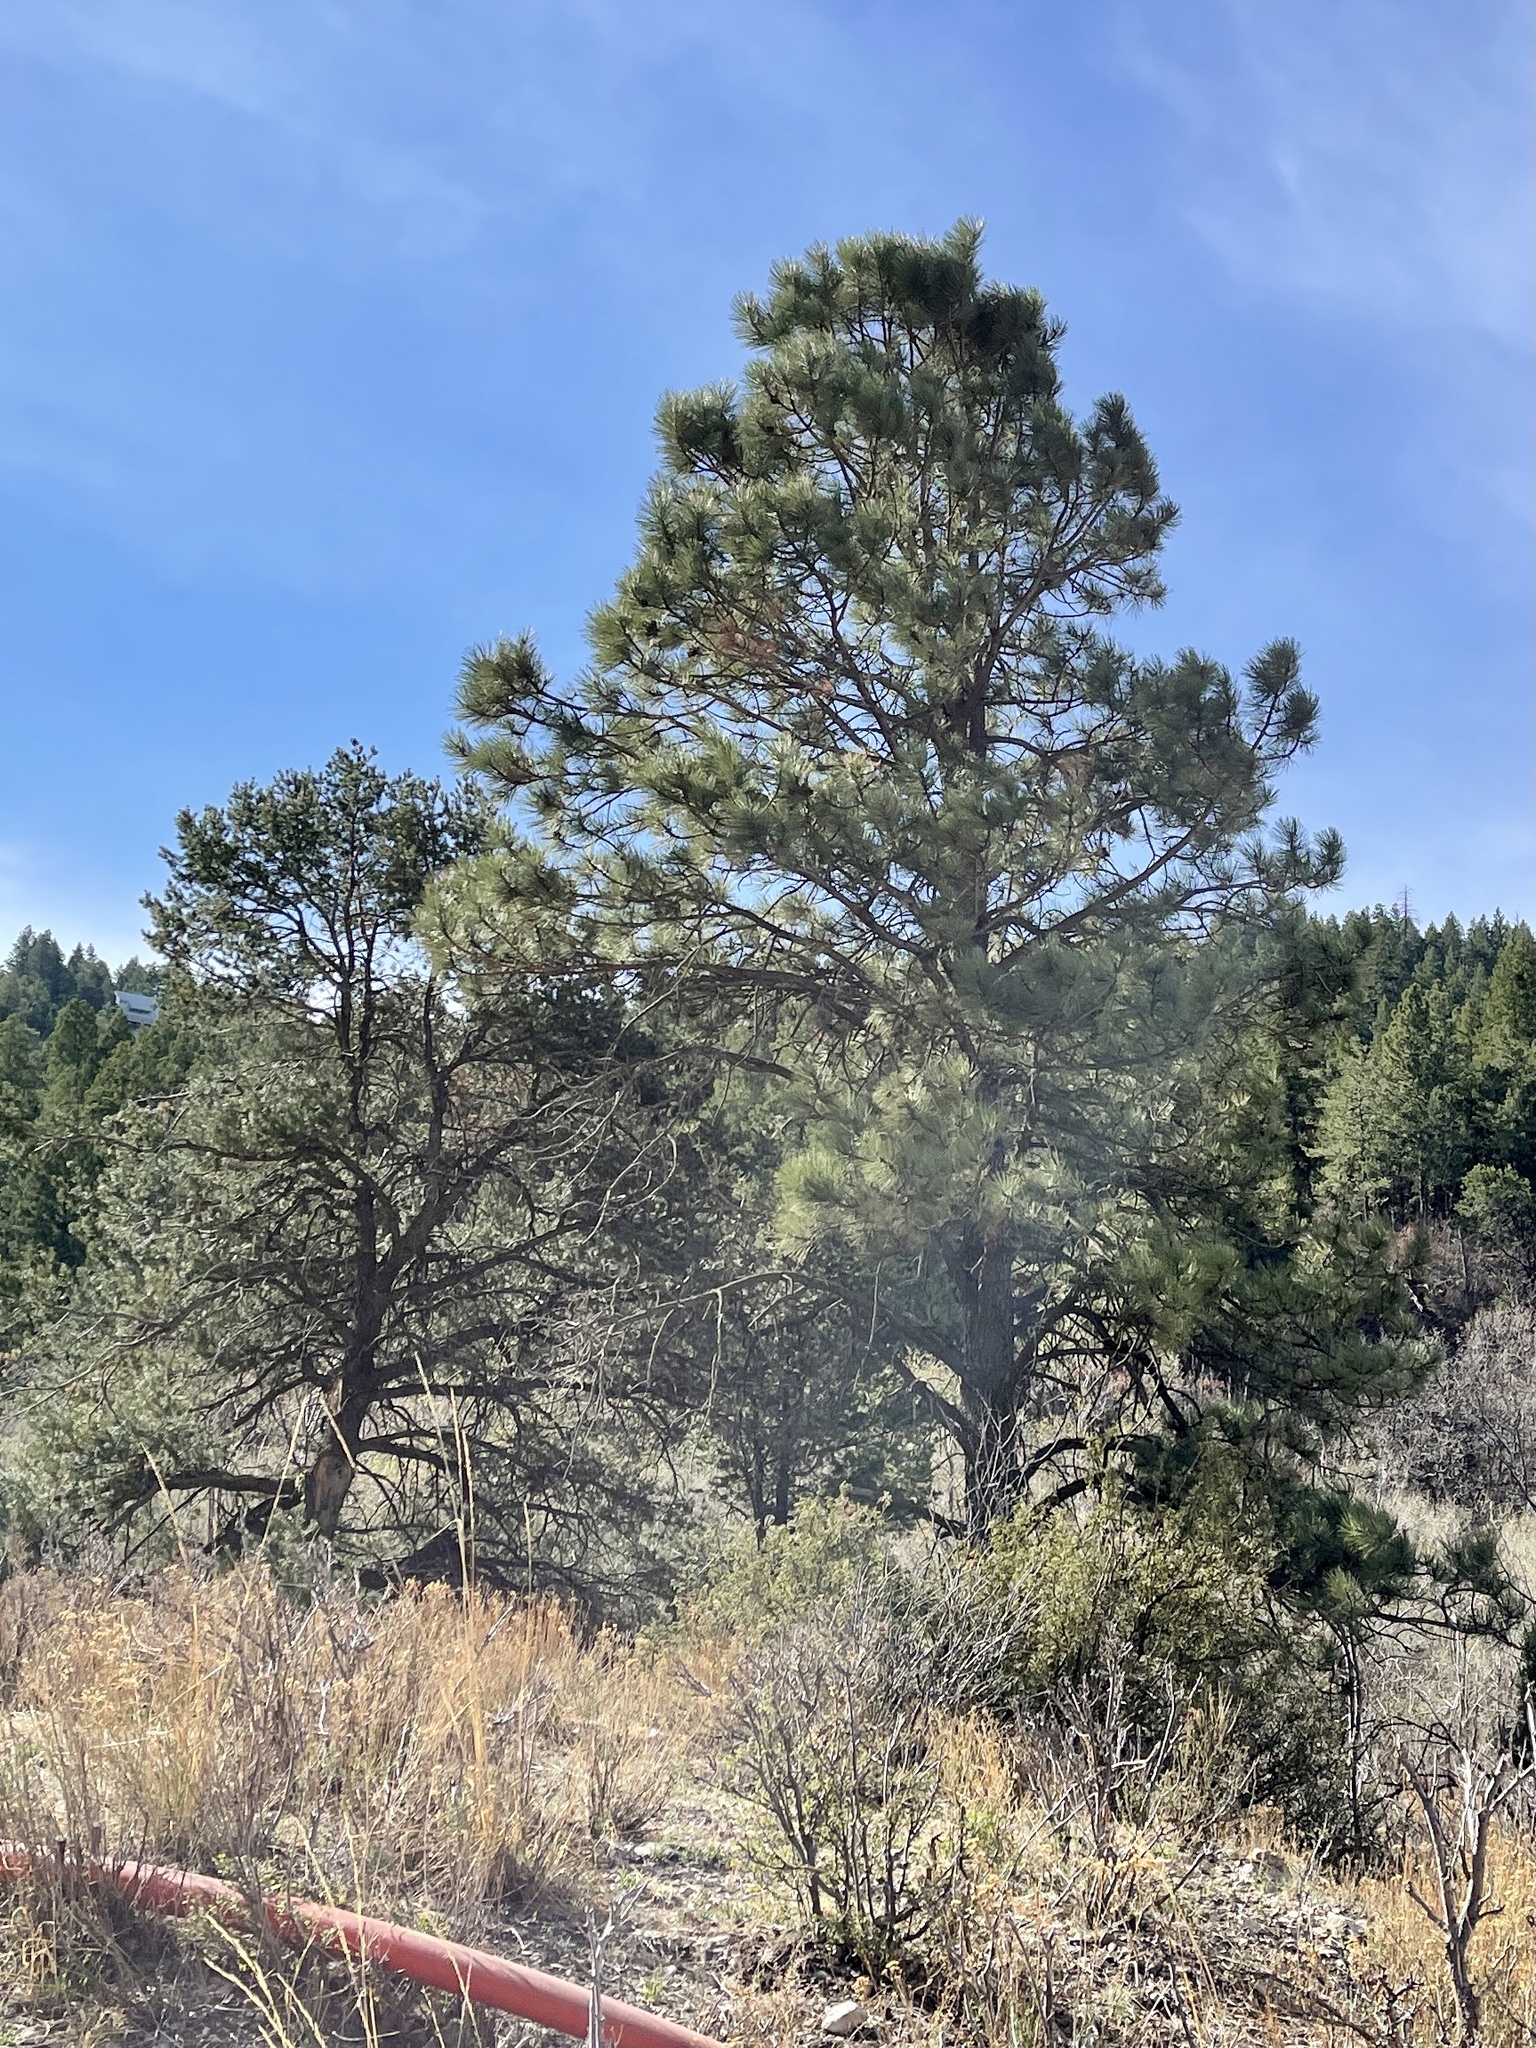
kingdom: Plantae
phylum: Tracheophyta
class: Pinopsida
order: Pinales
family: Pinaceae
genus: Pinus
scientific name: Pinus ponderosa
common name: Western yellow-pine
